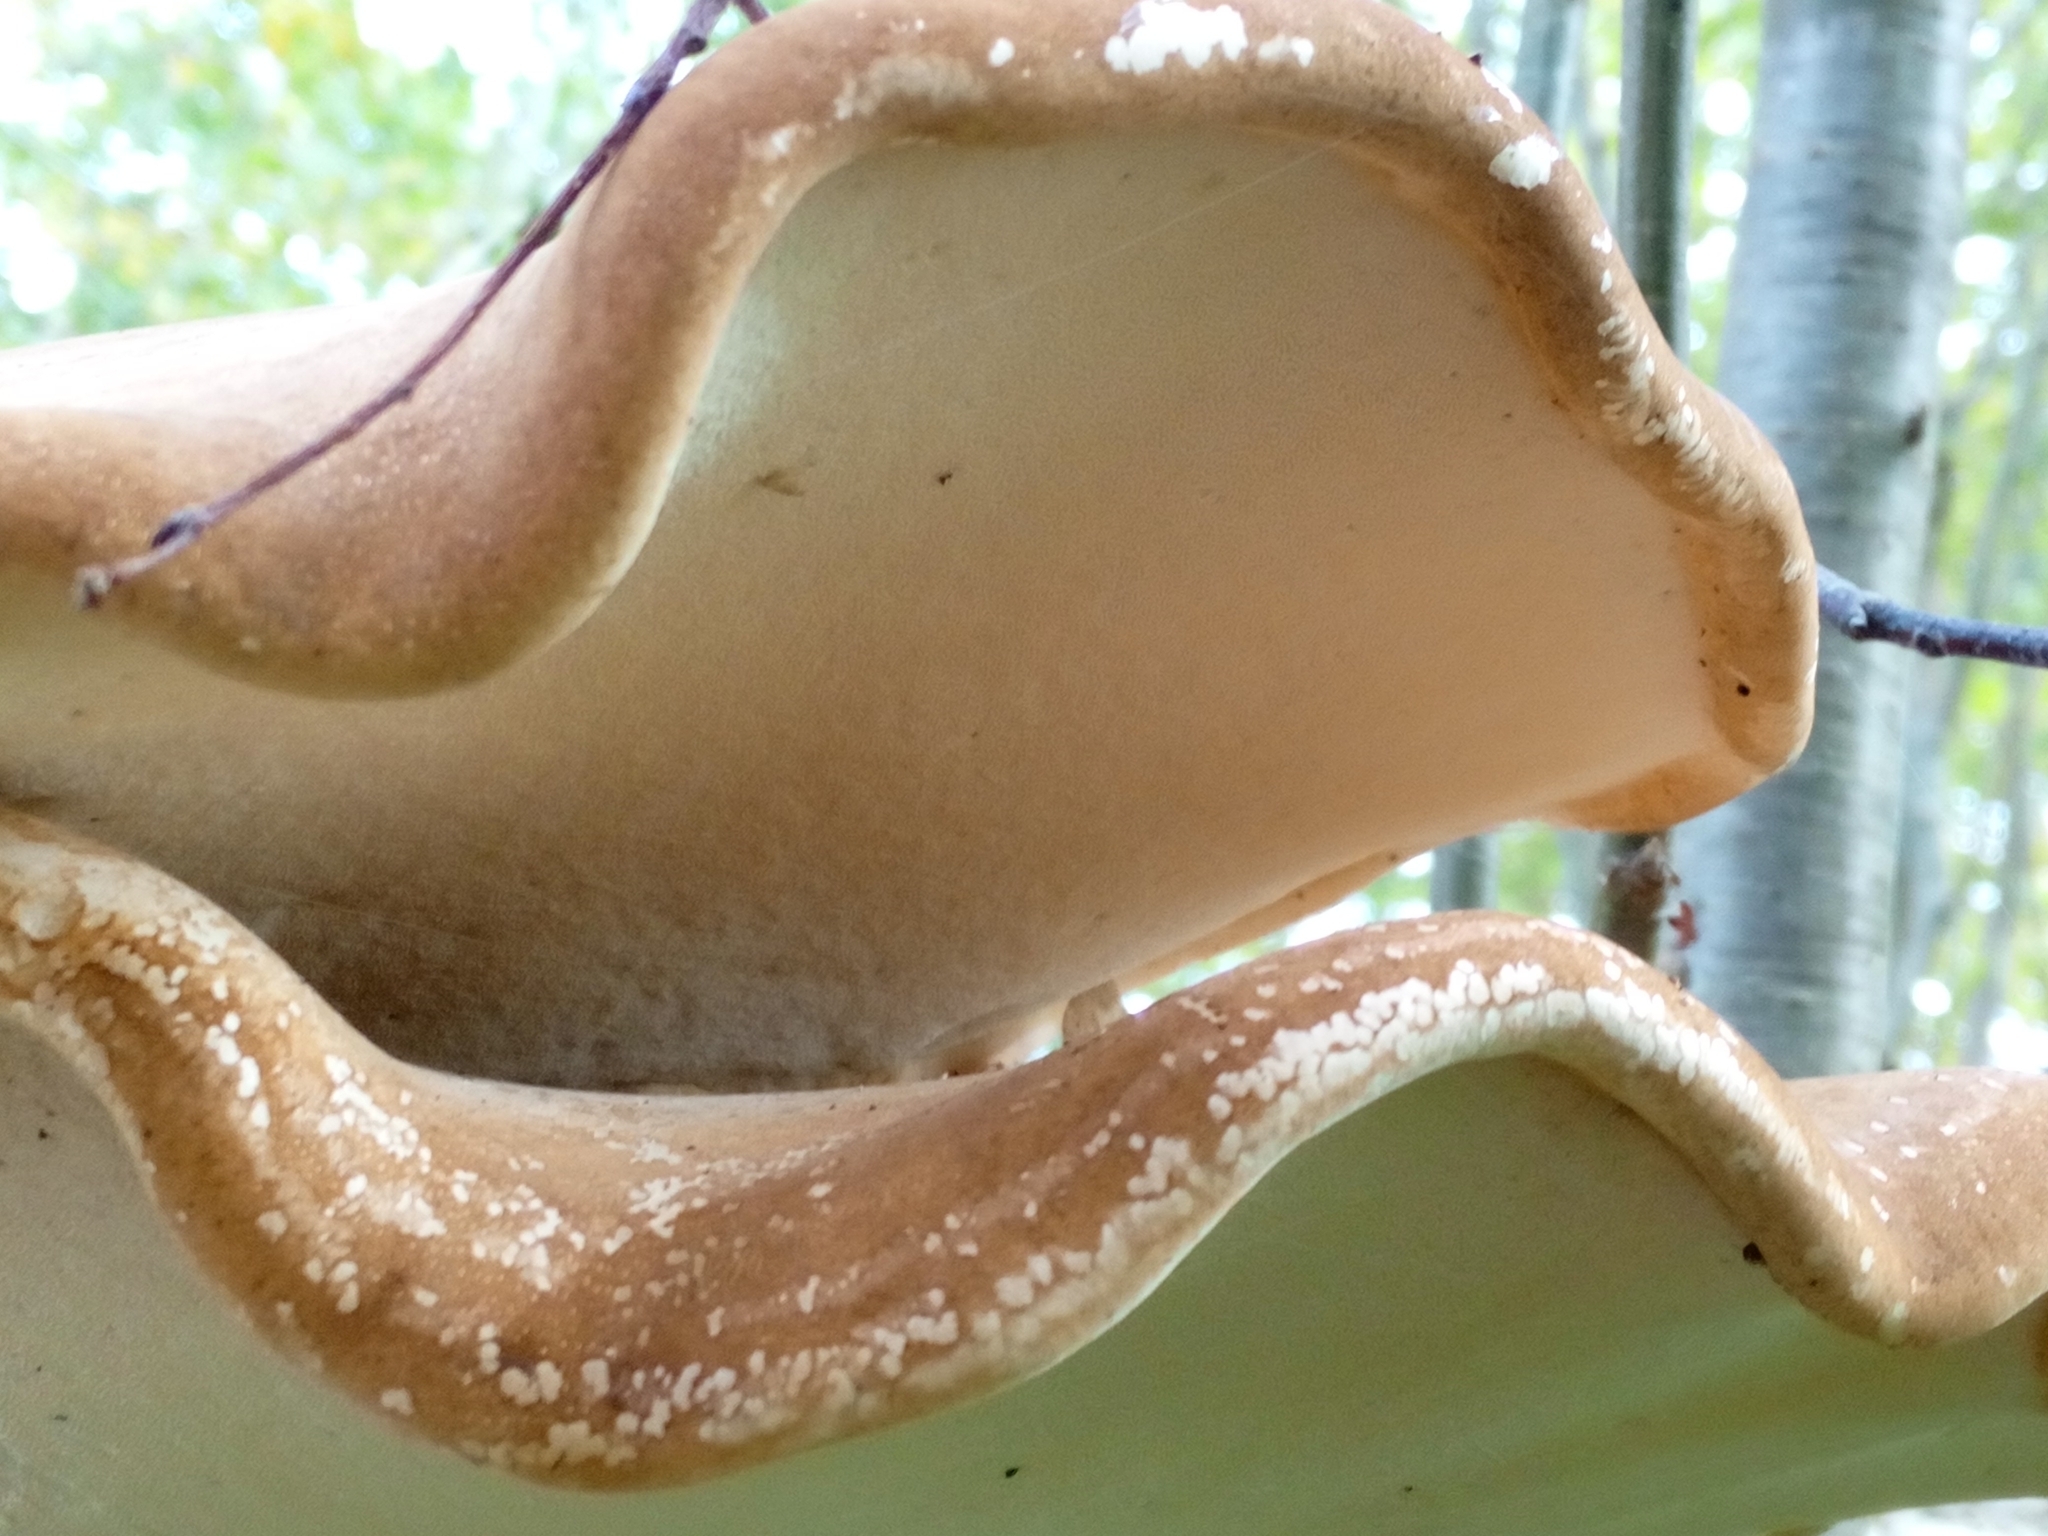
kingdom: Fungi
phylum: Basidiomycota
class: Agaricomycetes
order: Polyporales
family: Fomitopsidaceae
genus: Fomitopsis
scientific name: Fomitopsis betulina
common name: Birch polypore
